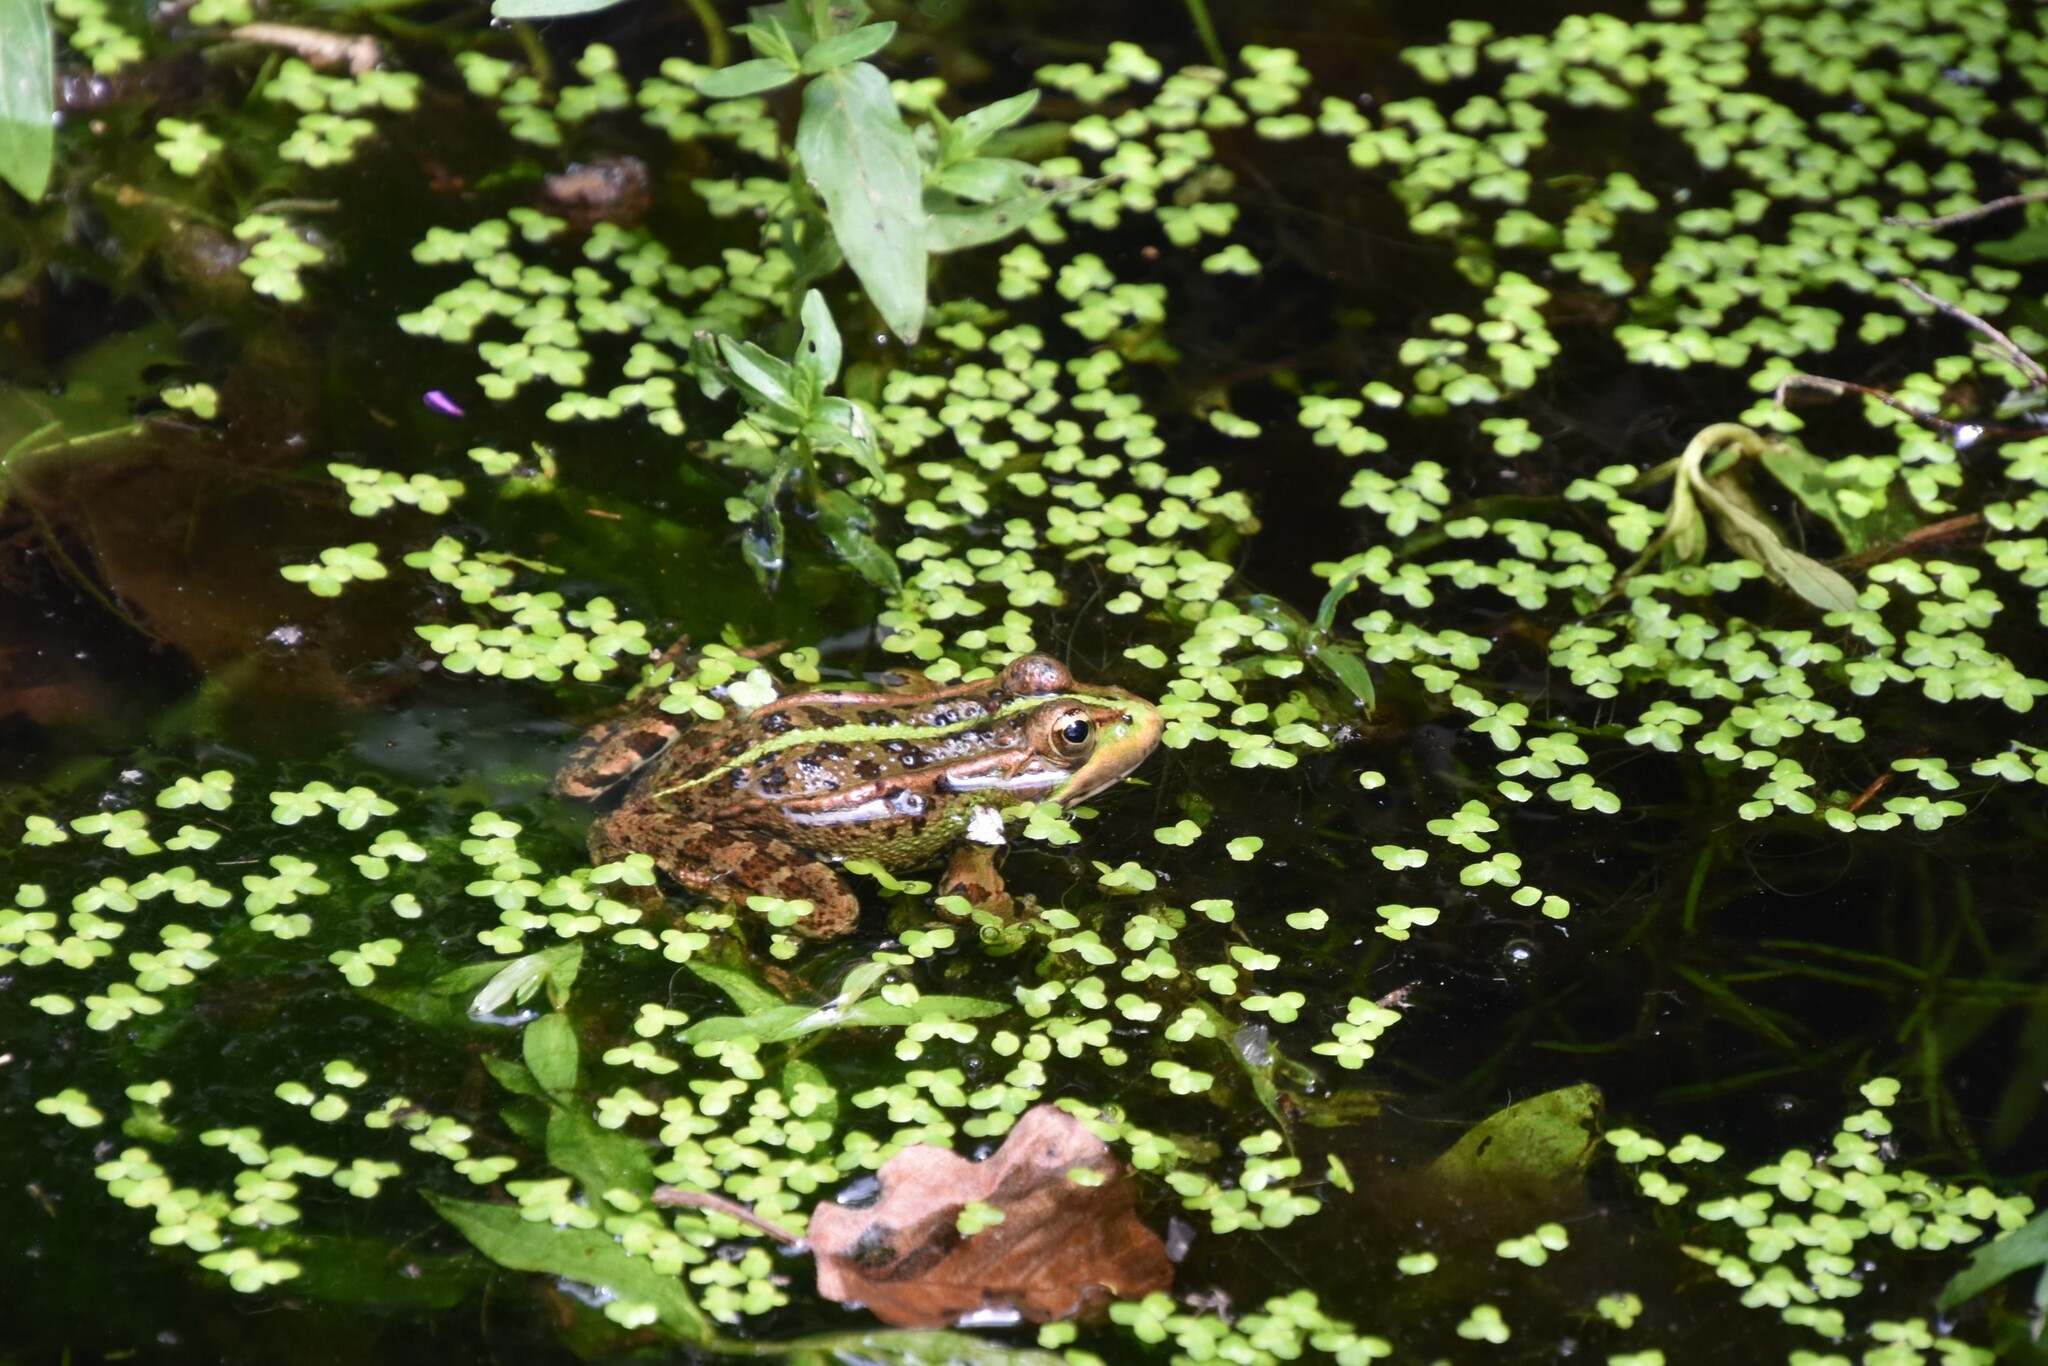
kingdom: Animalia
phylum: Chordata
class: Amphibia
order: Anura
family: Ranidae
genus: Pelophylax
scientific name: Pelophylax perezi
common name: Perez's frog
